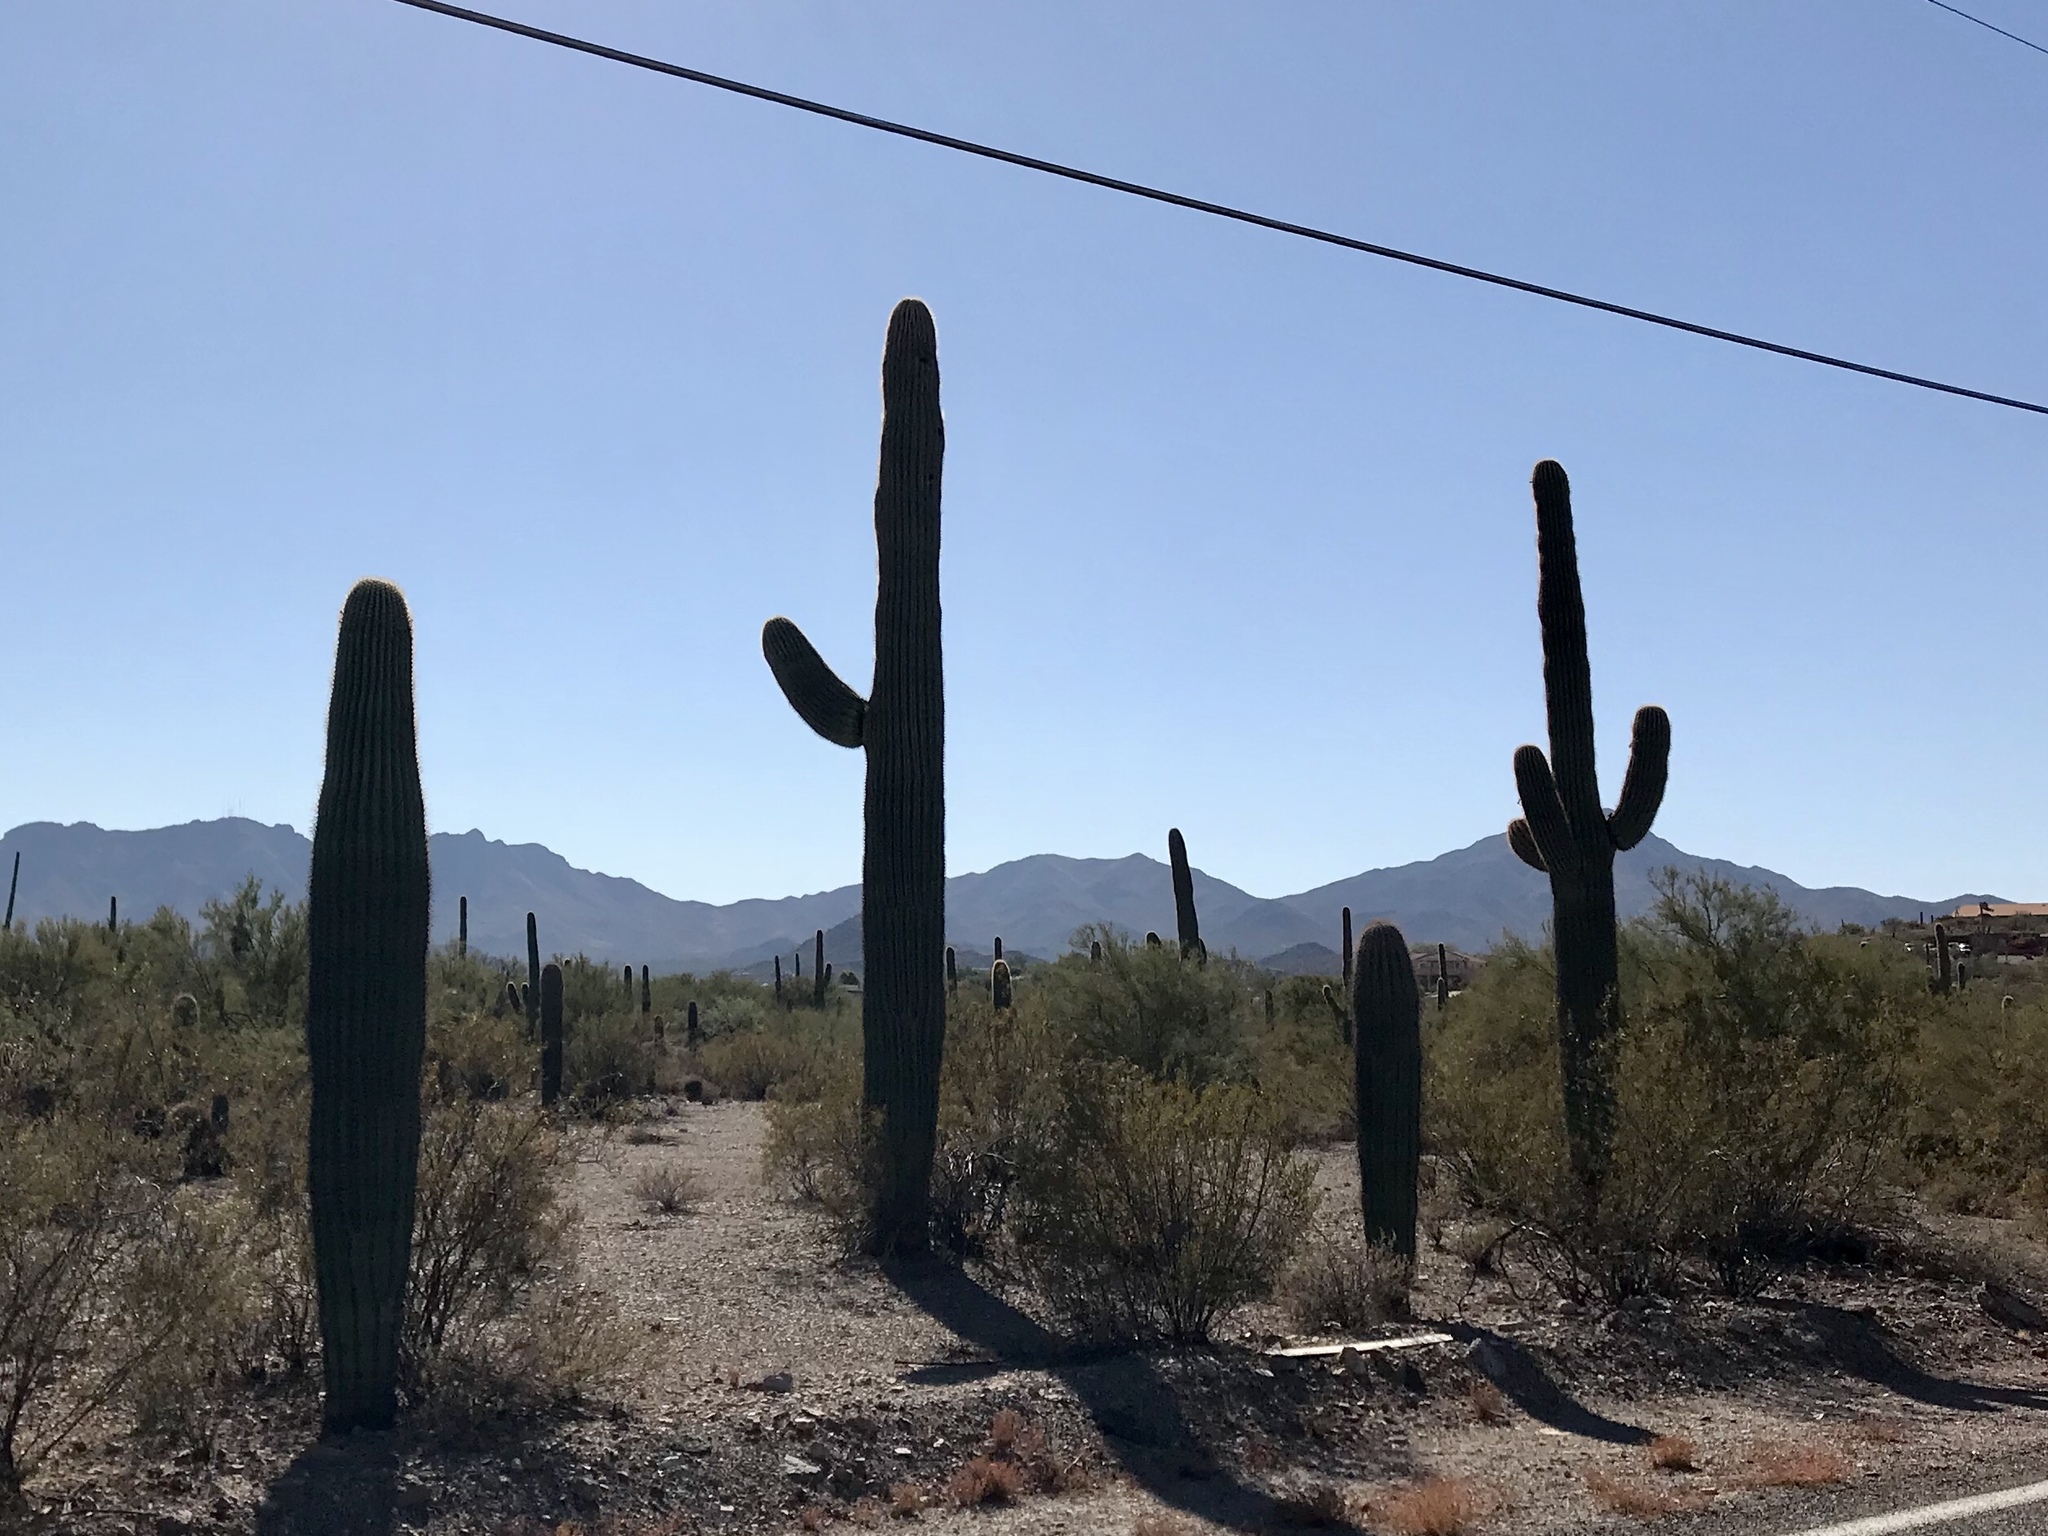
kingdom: Plantae
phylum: Tracheophyta
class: Magnoliopsida
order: Caryophyllales
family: Cactaceae
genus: Carnegiea
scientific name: Carnegiea gigantea
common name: Saguaro
